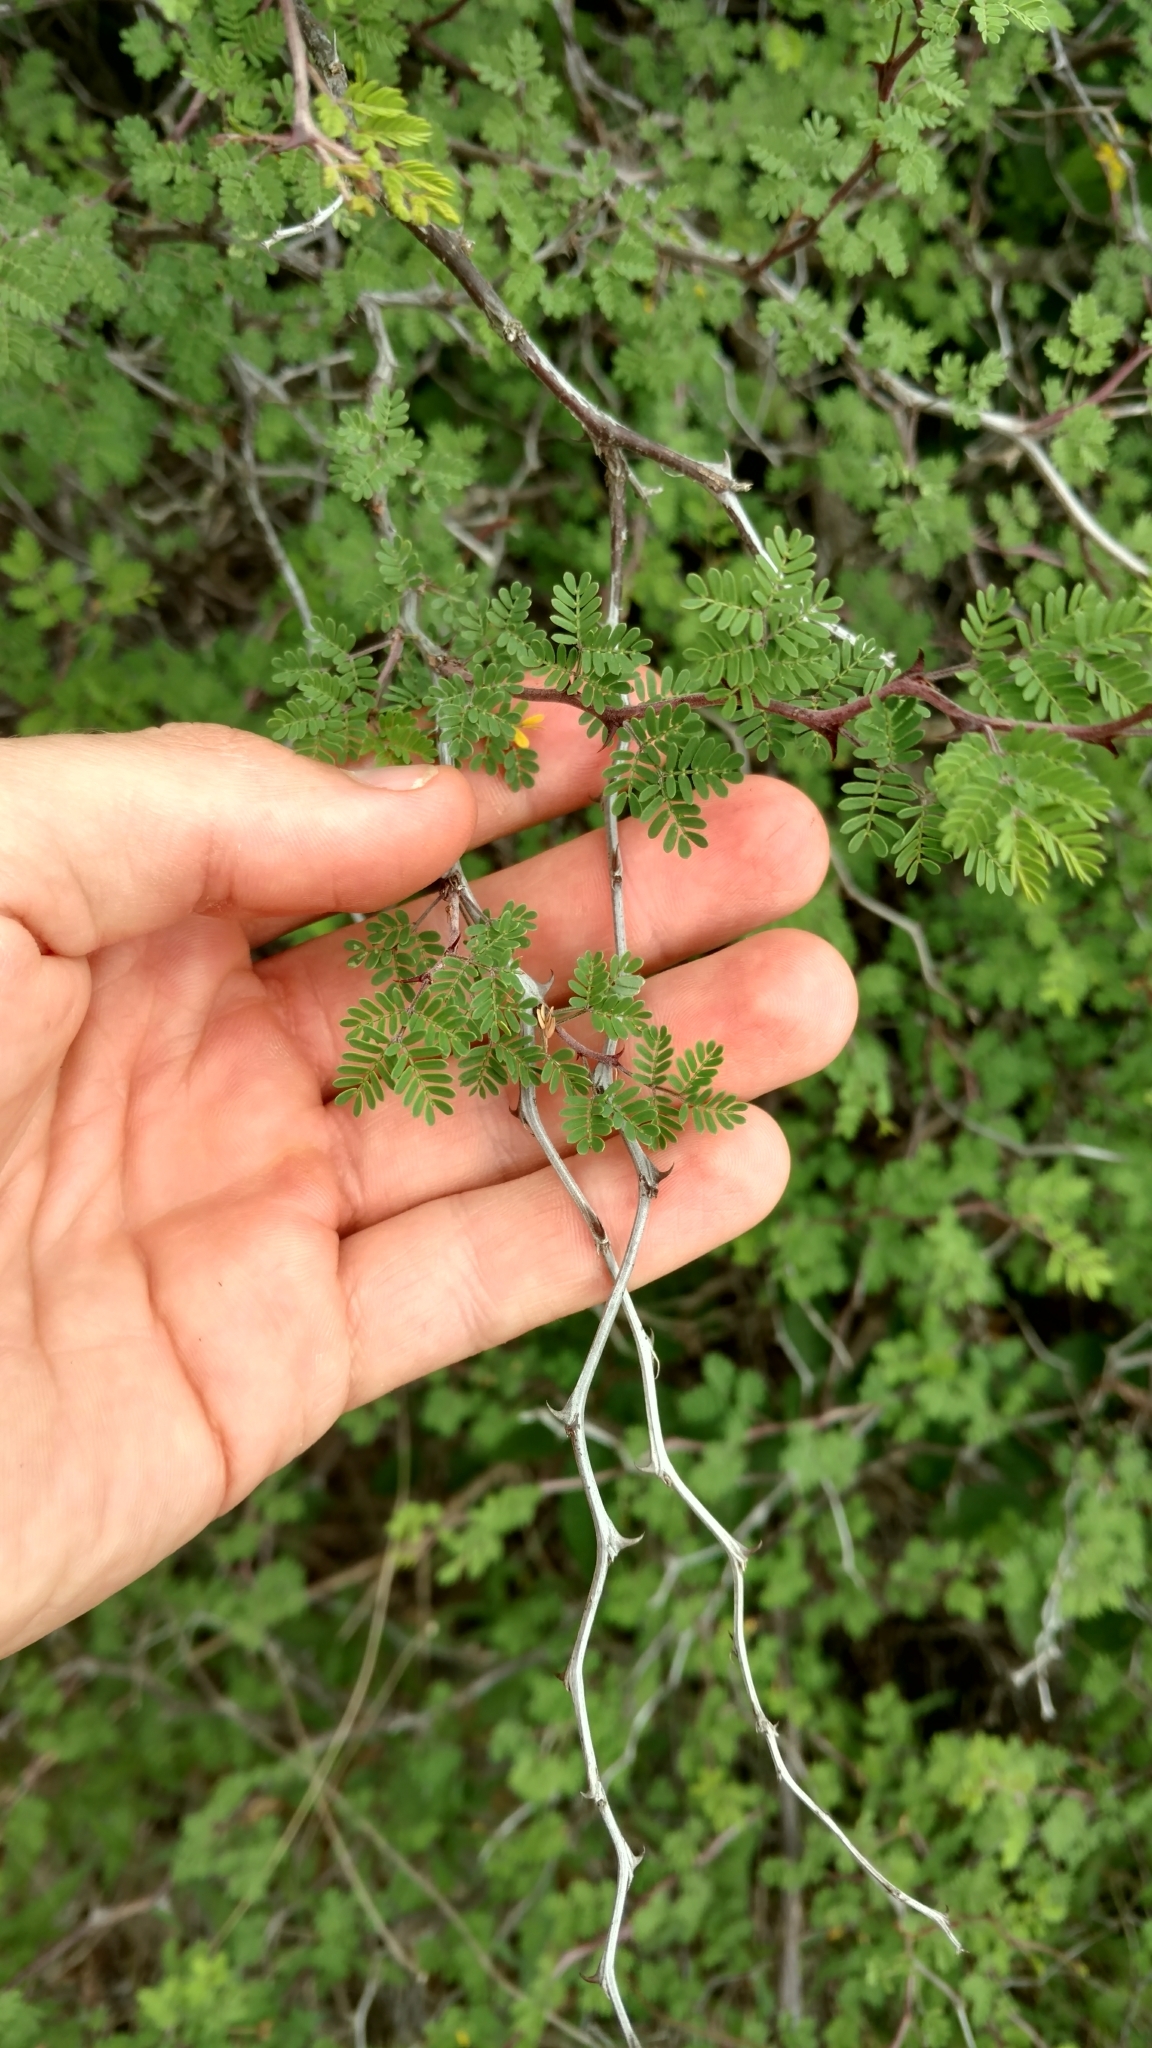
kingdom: Plantae
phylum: Tracheophyta
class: Magnoliopsida
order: Fabales
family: Fabaceae
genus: Mimosa
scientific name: Mimosa texana
